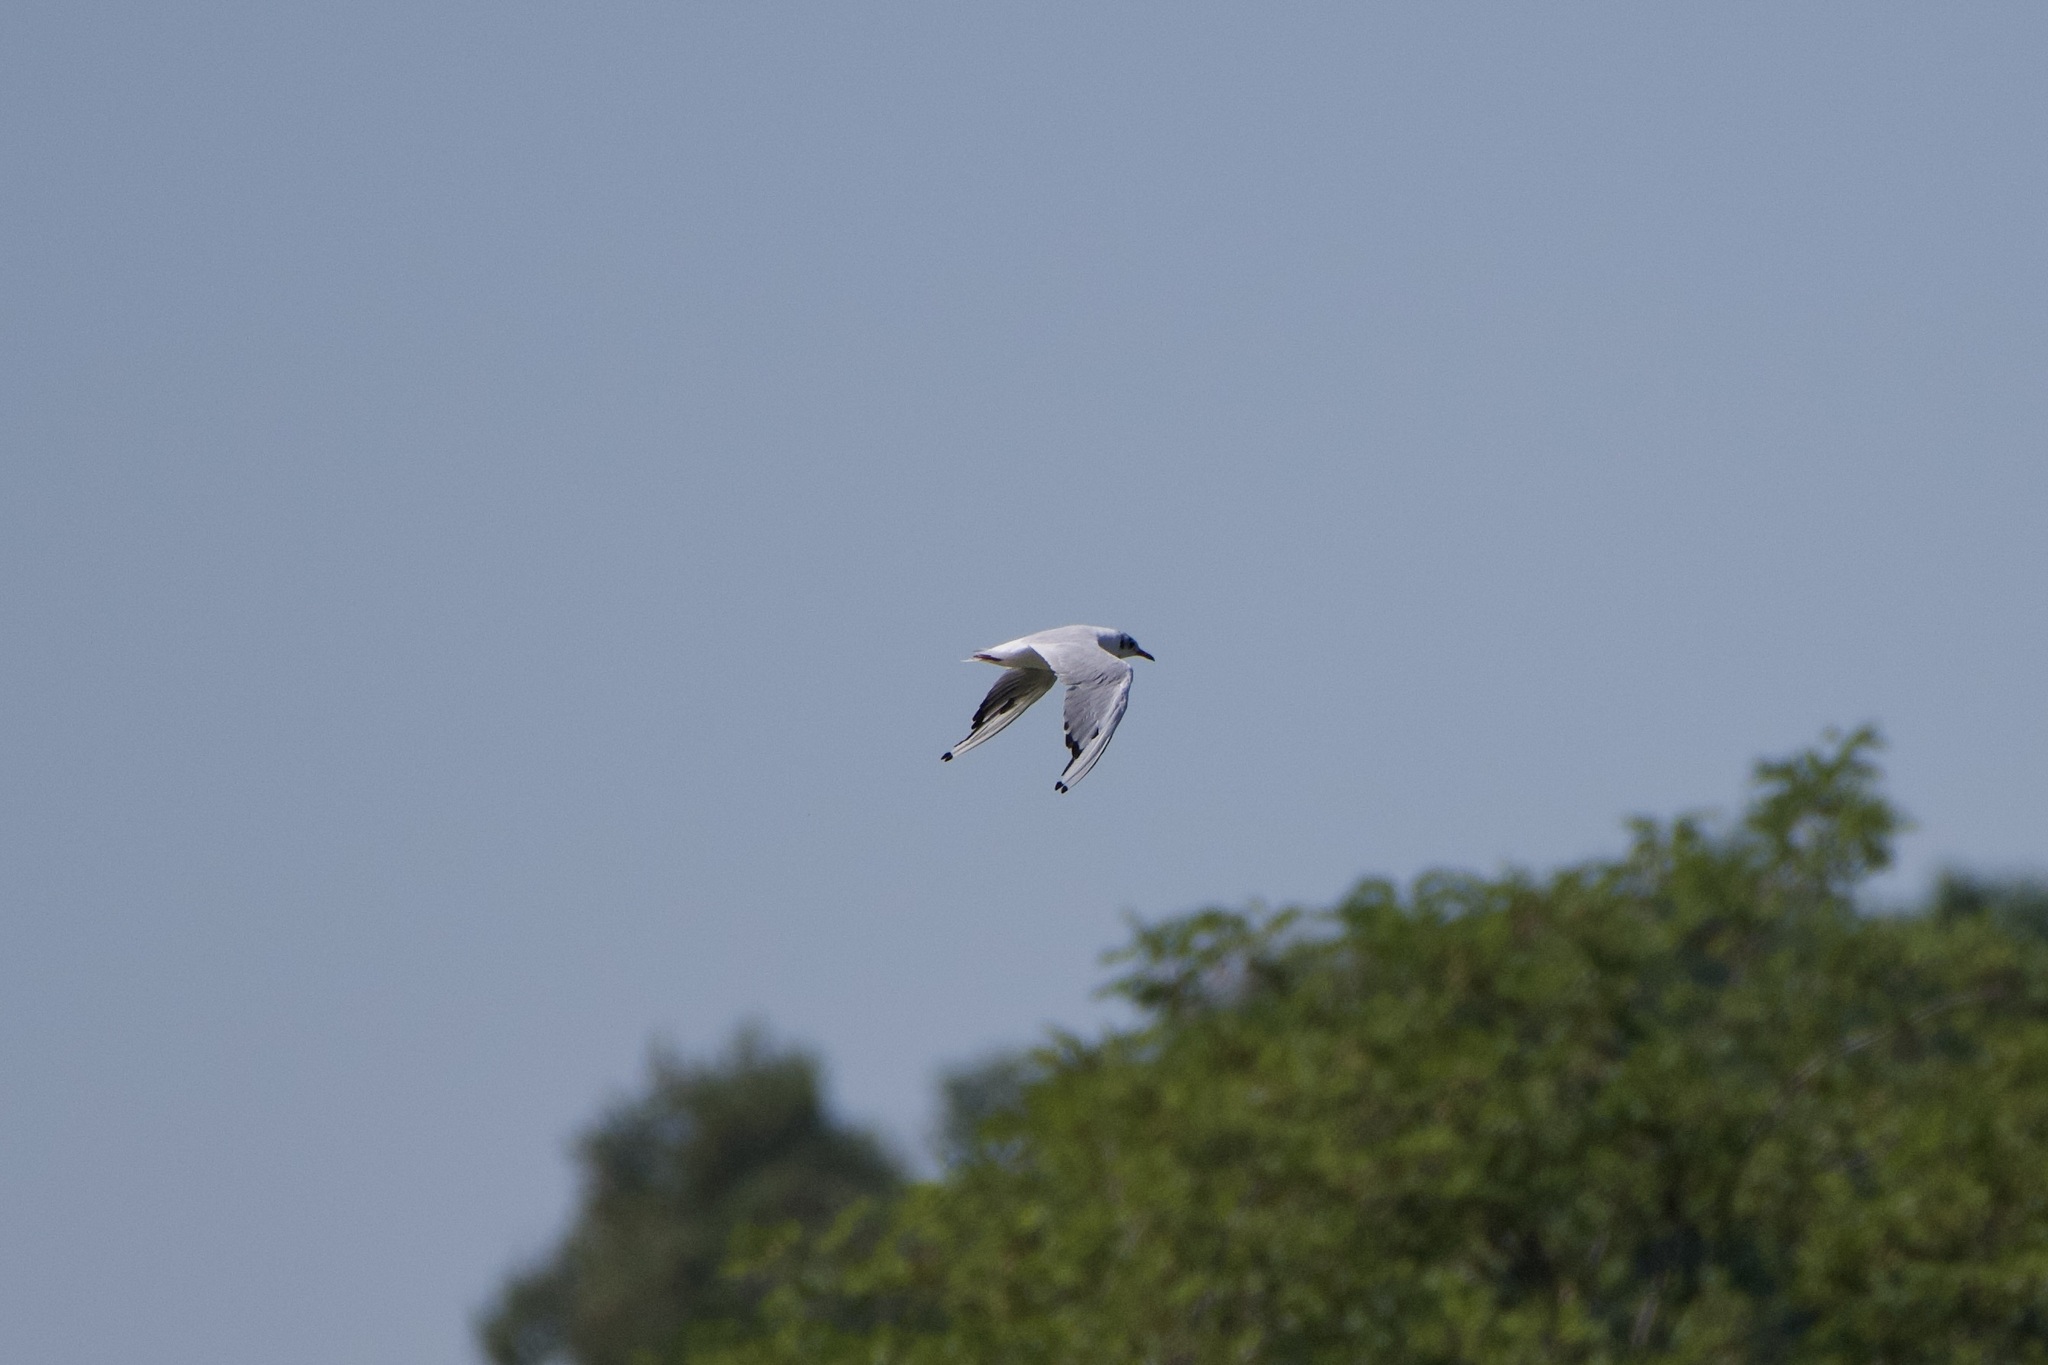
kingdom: Animalia
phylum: Chordata
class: Aves
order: Charadriiformes
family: Laridae
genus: Chroicocephalus
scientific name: Chroicocephalus ridibundus
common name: Black-headed gull
